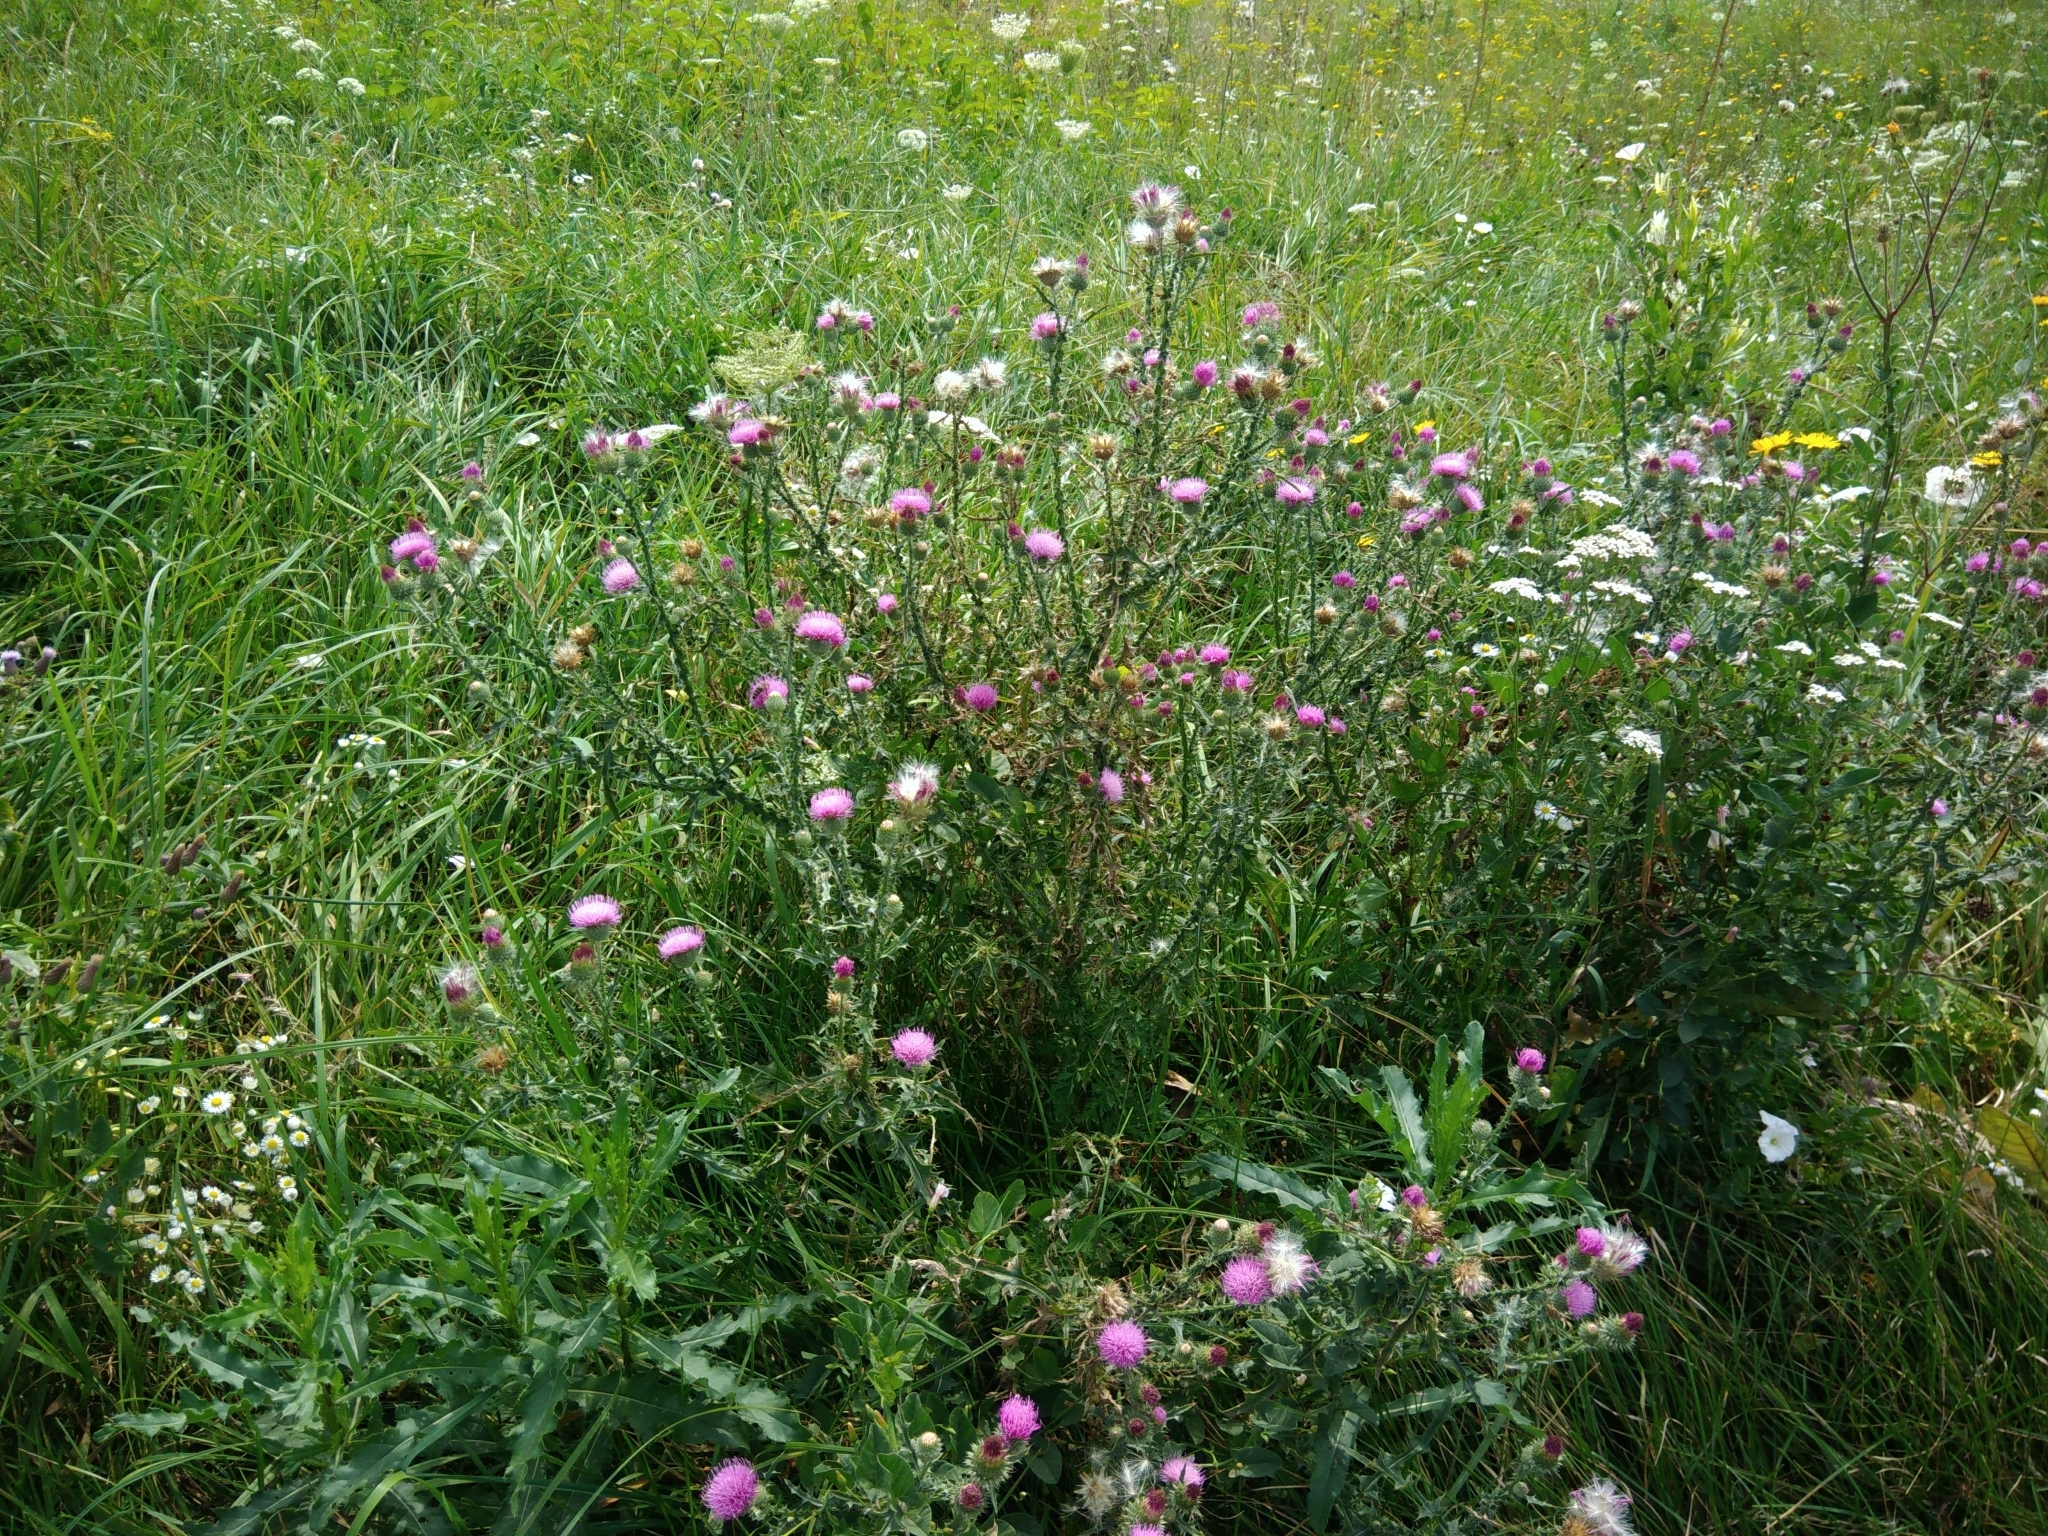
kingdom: Plantae
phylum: Tracheophyta
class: Magnoliopsida
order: Asterales
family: Asteraceae
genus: Carduus
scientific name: Carduus acanthoides
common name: Plumeless thistle
